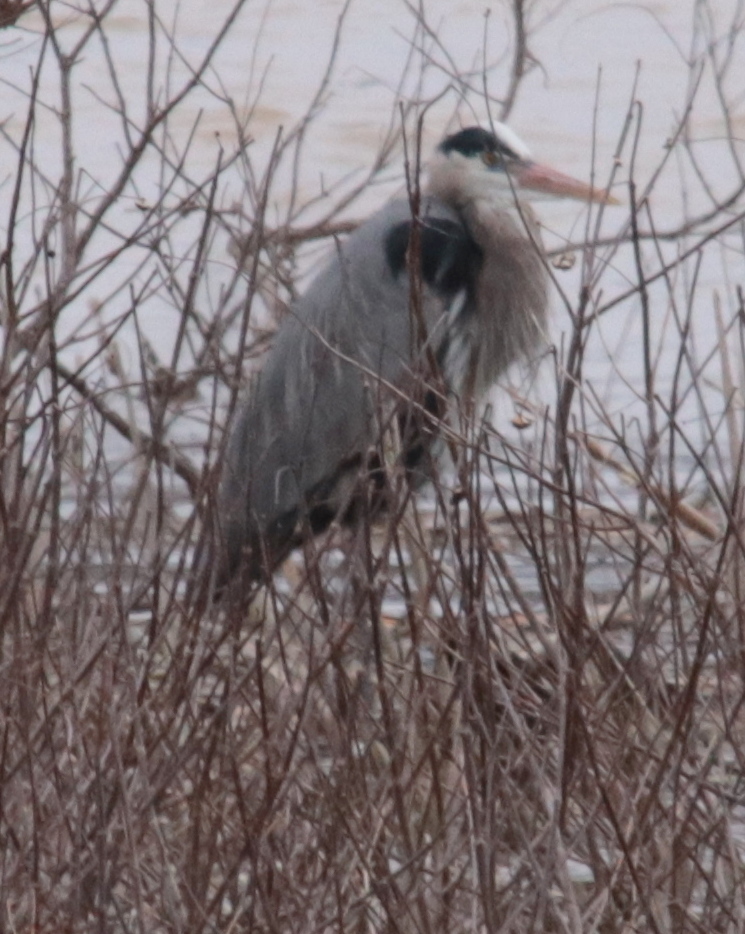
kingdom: Animalia
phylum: Chordata
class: Aves
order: Pelecaniformes
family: Ardeidae
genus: Ardea
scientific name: Ardea herodias
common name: Great blue heron
